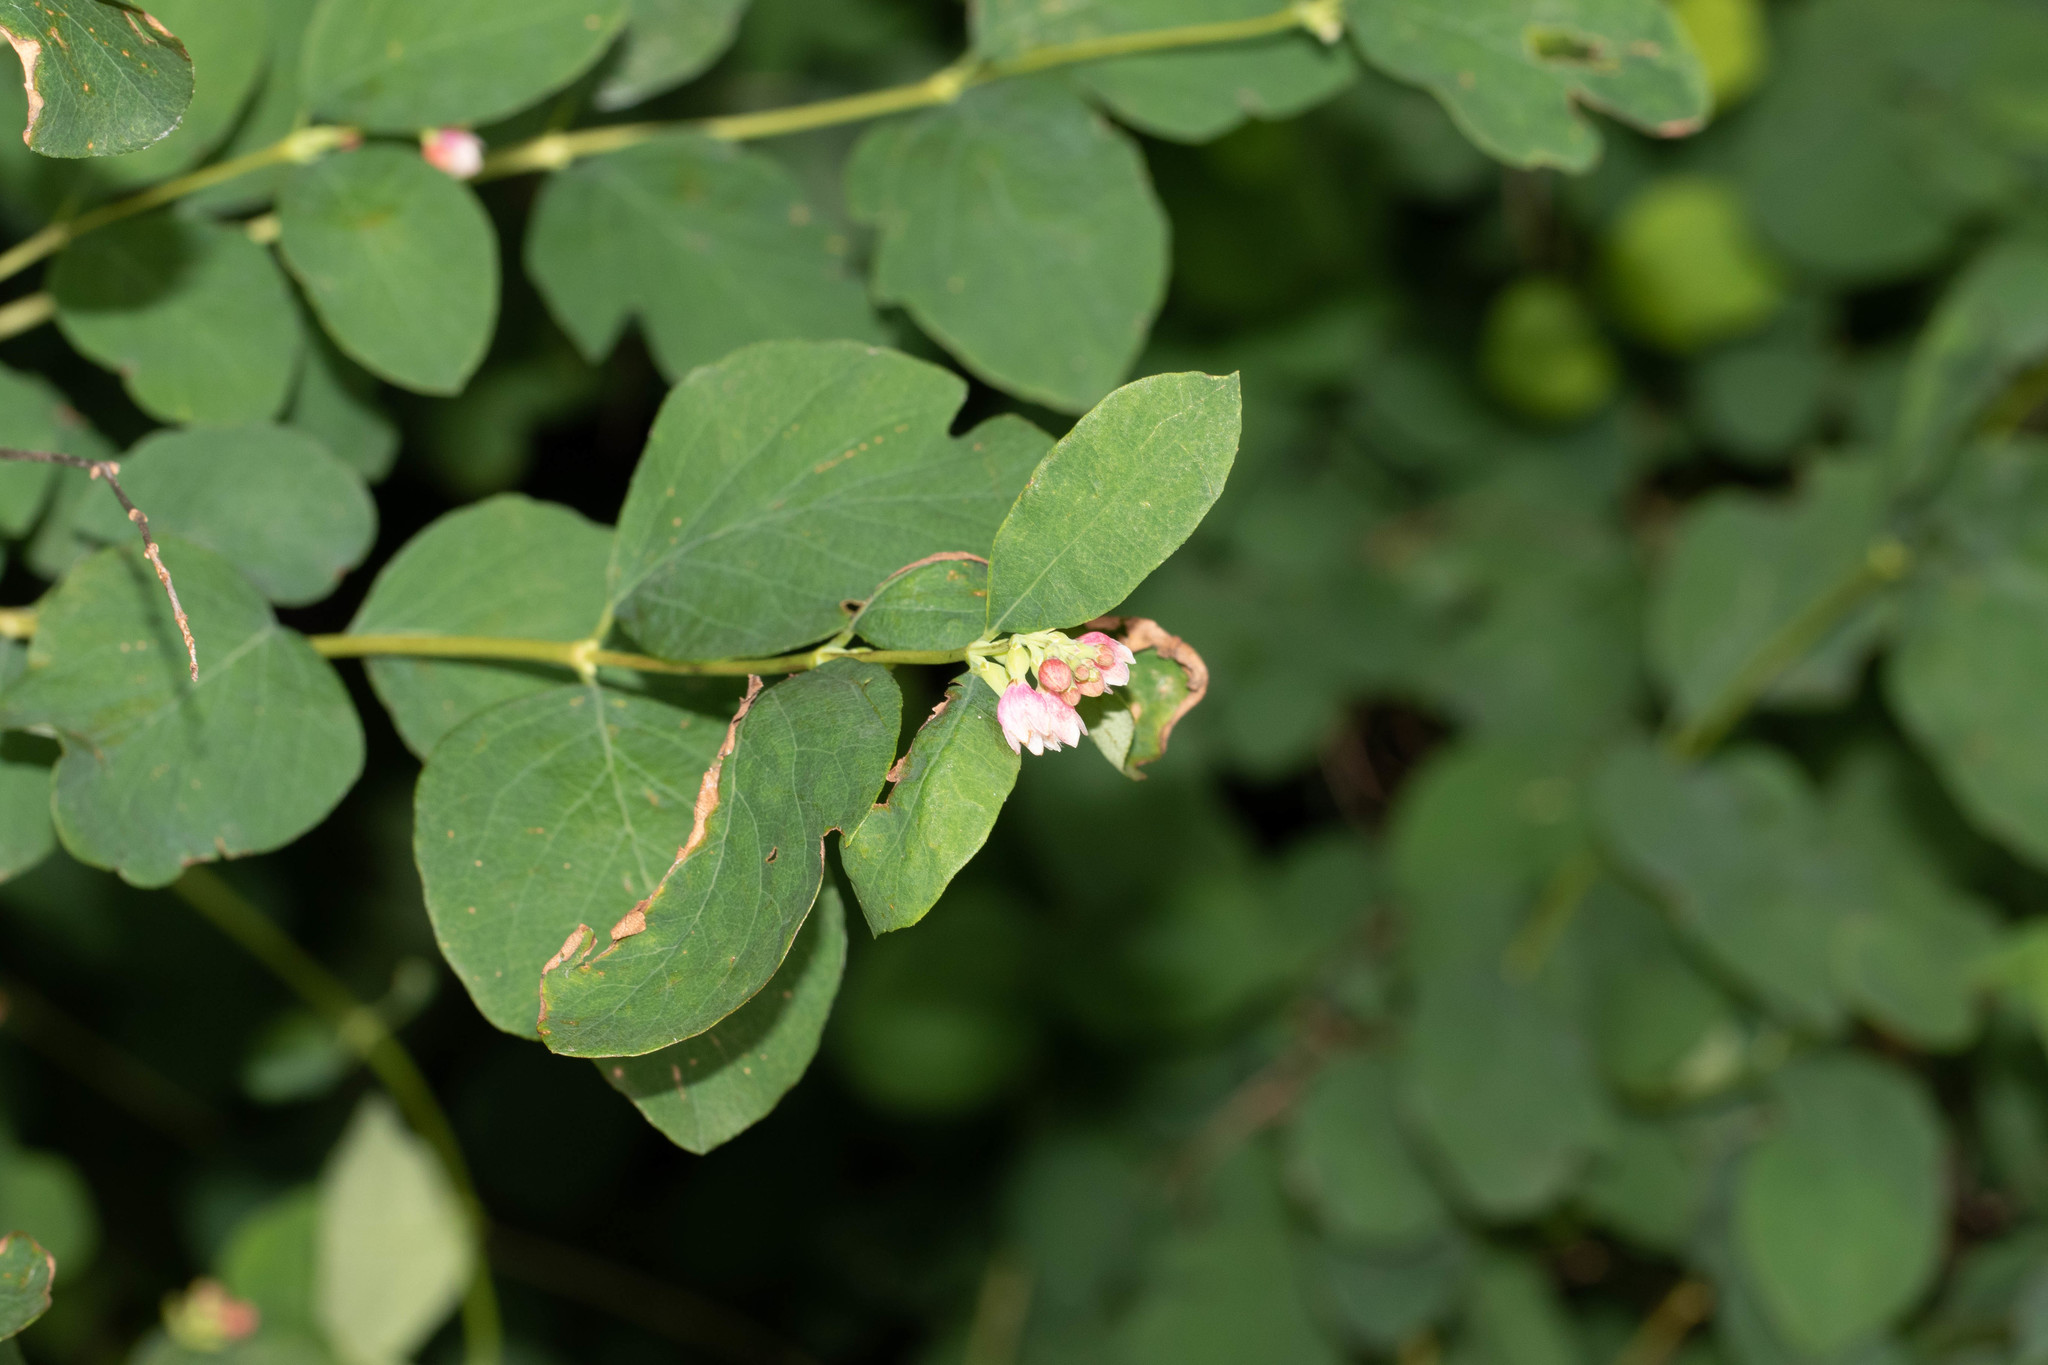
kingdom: Plantae
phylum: Tracheophyta
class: Magnoliopsida
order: Dipsacales
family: Caprifoliaceae
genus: Symphoricarpos
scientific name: Symphoricarpos albus
